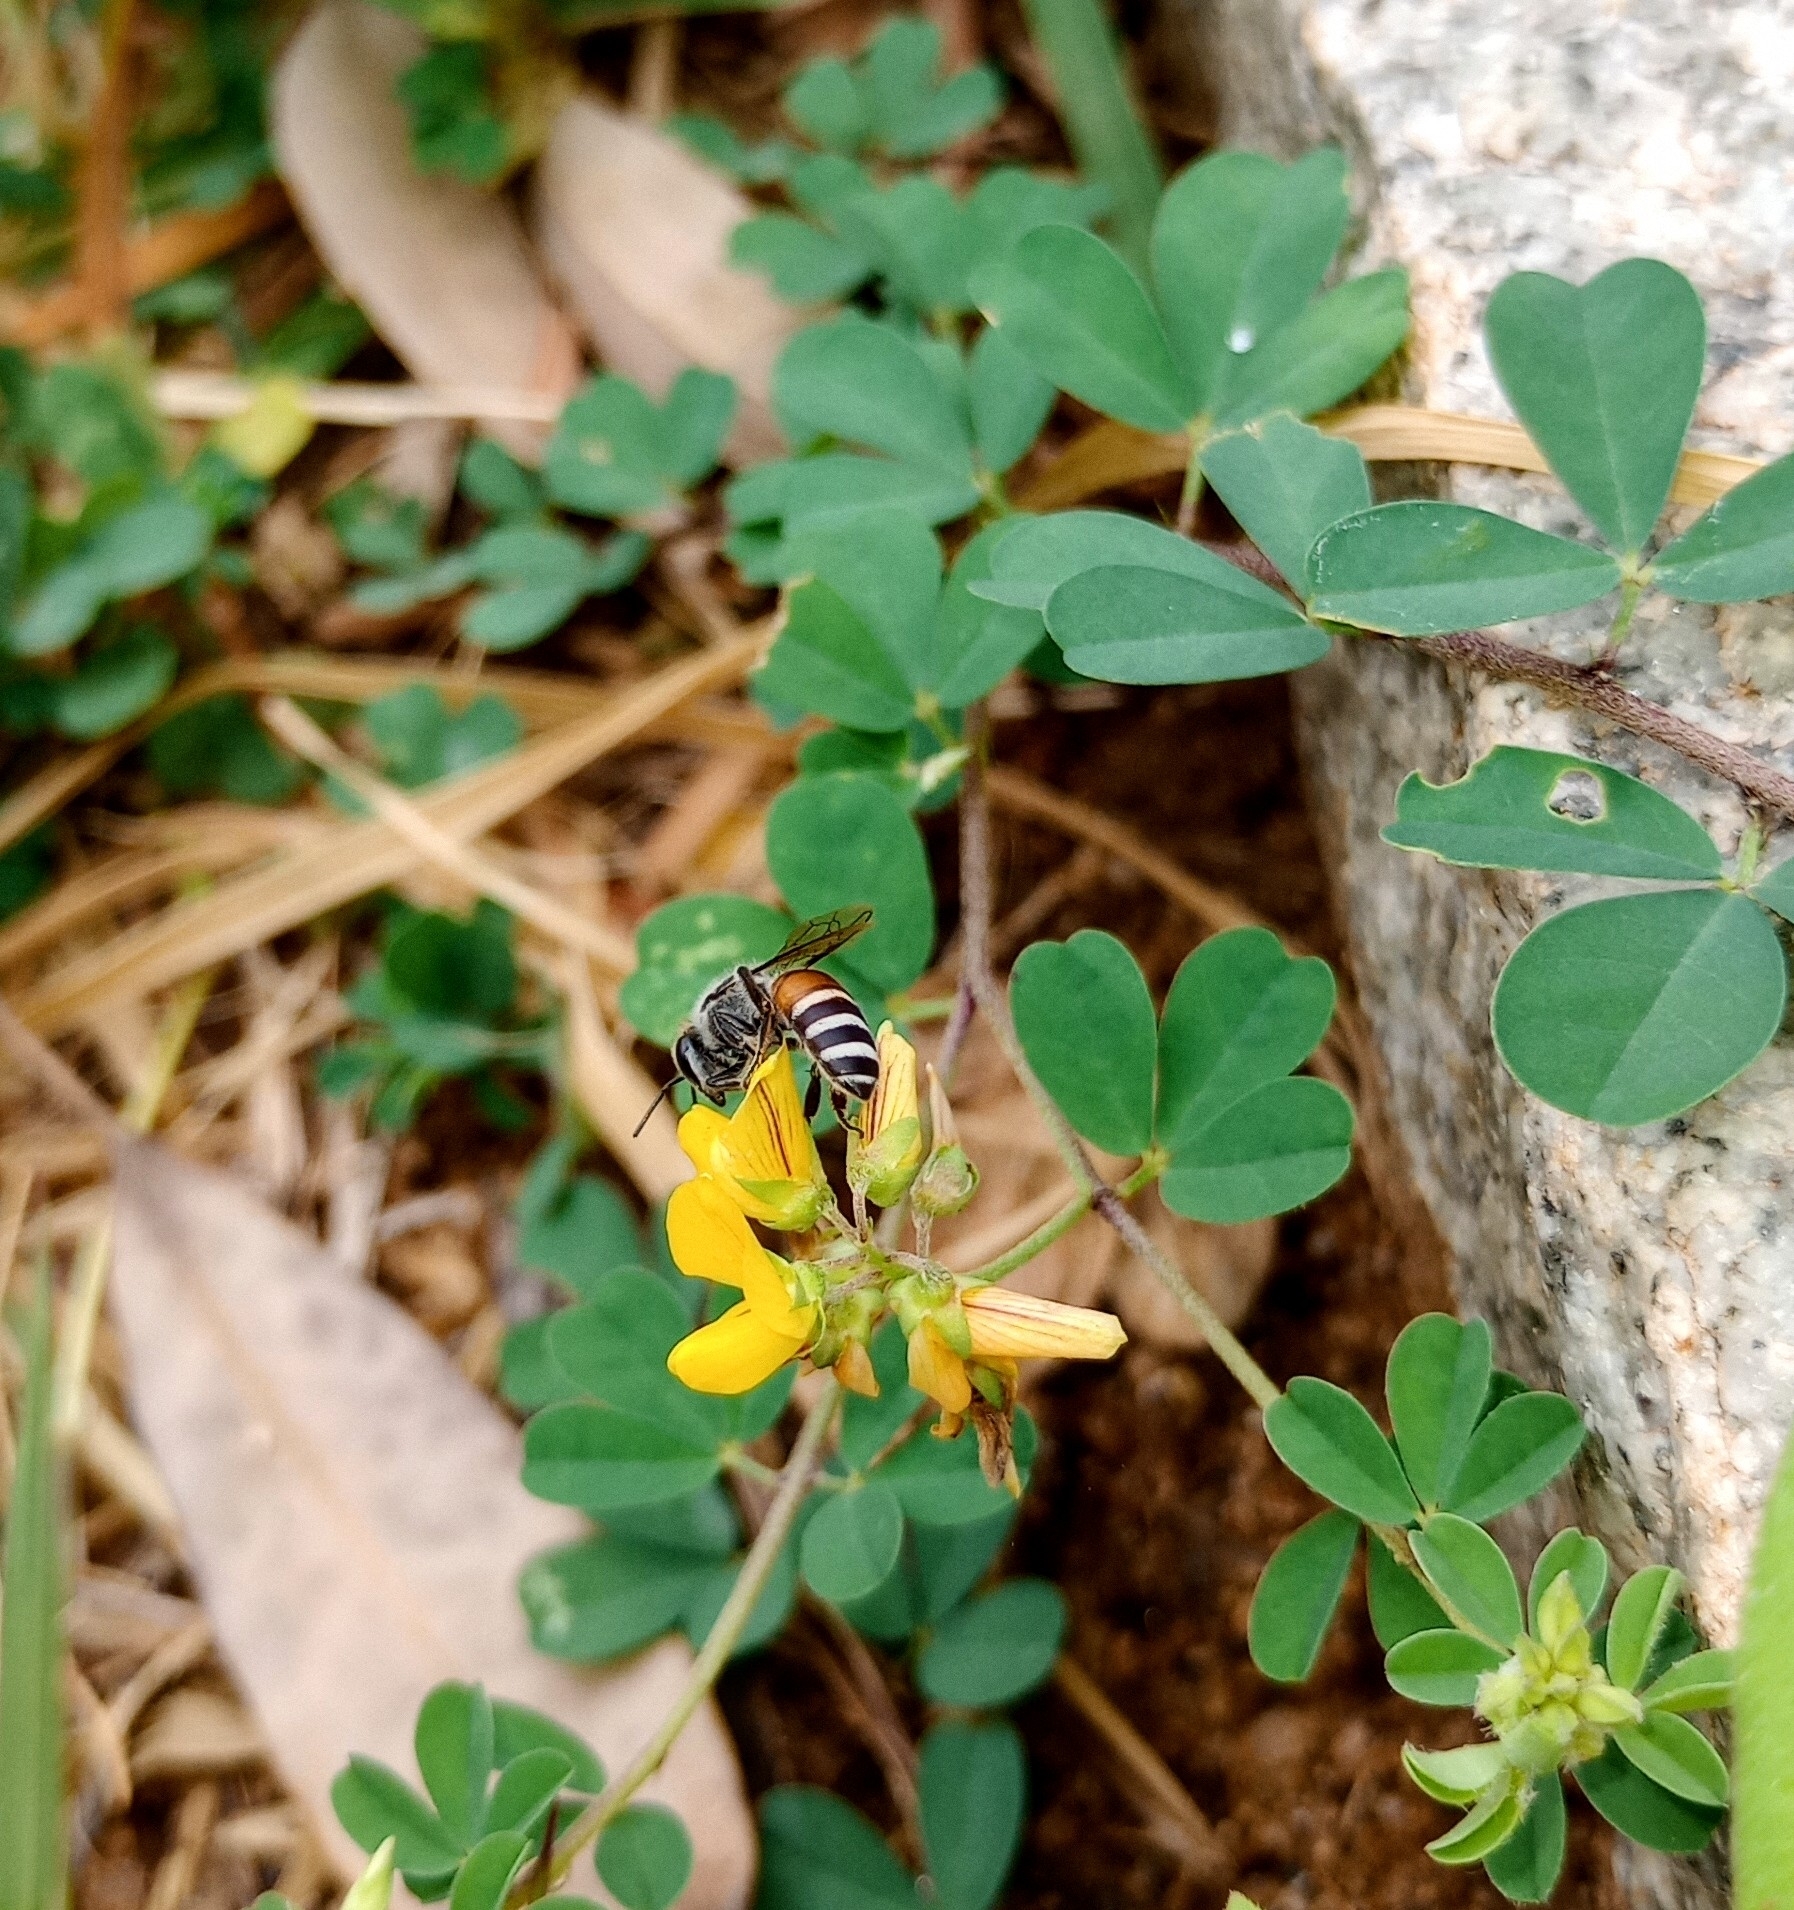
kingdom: Animalia
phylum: Arthropoda
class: Insecta
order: Hymenoptera
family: Apidae
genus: Apis
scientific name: Apis florea
